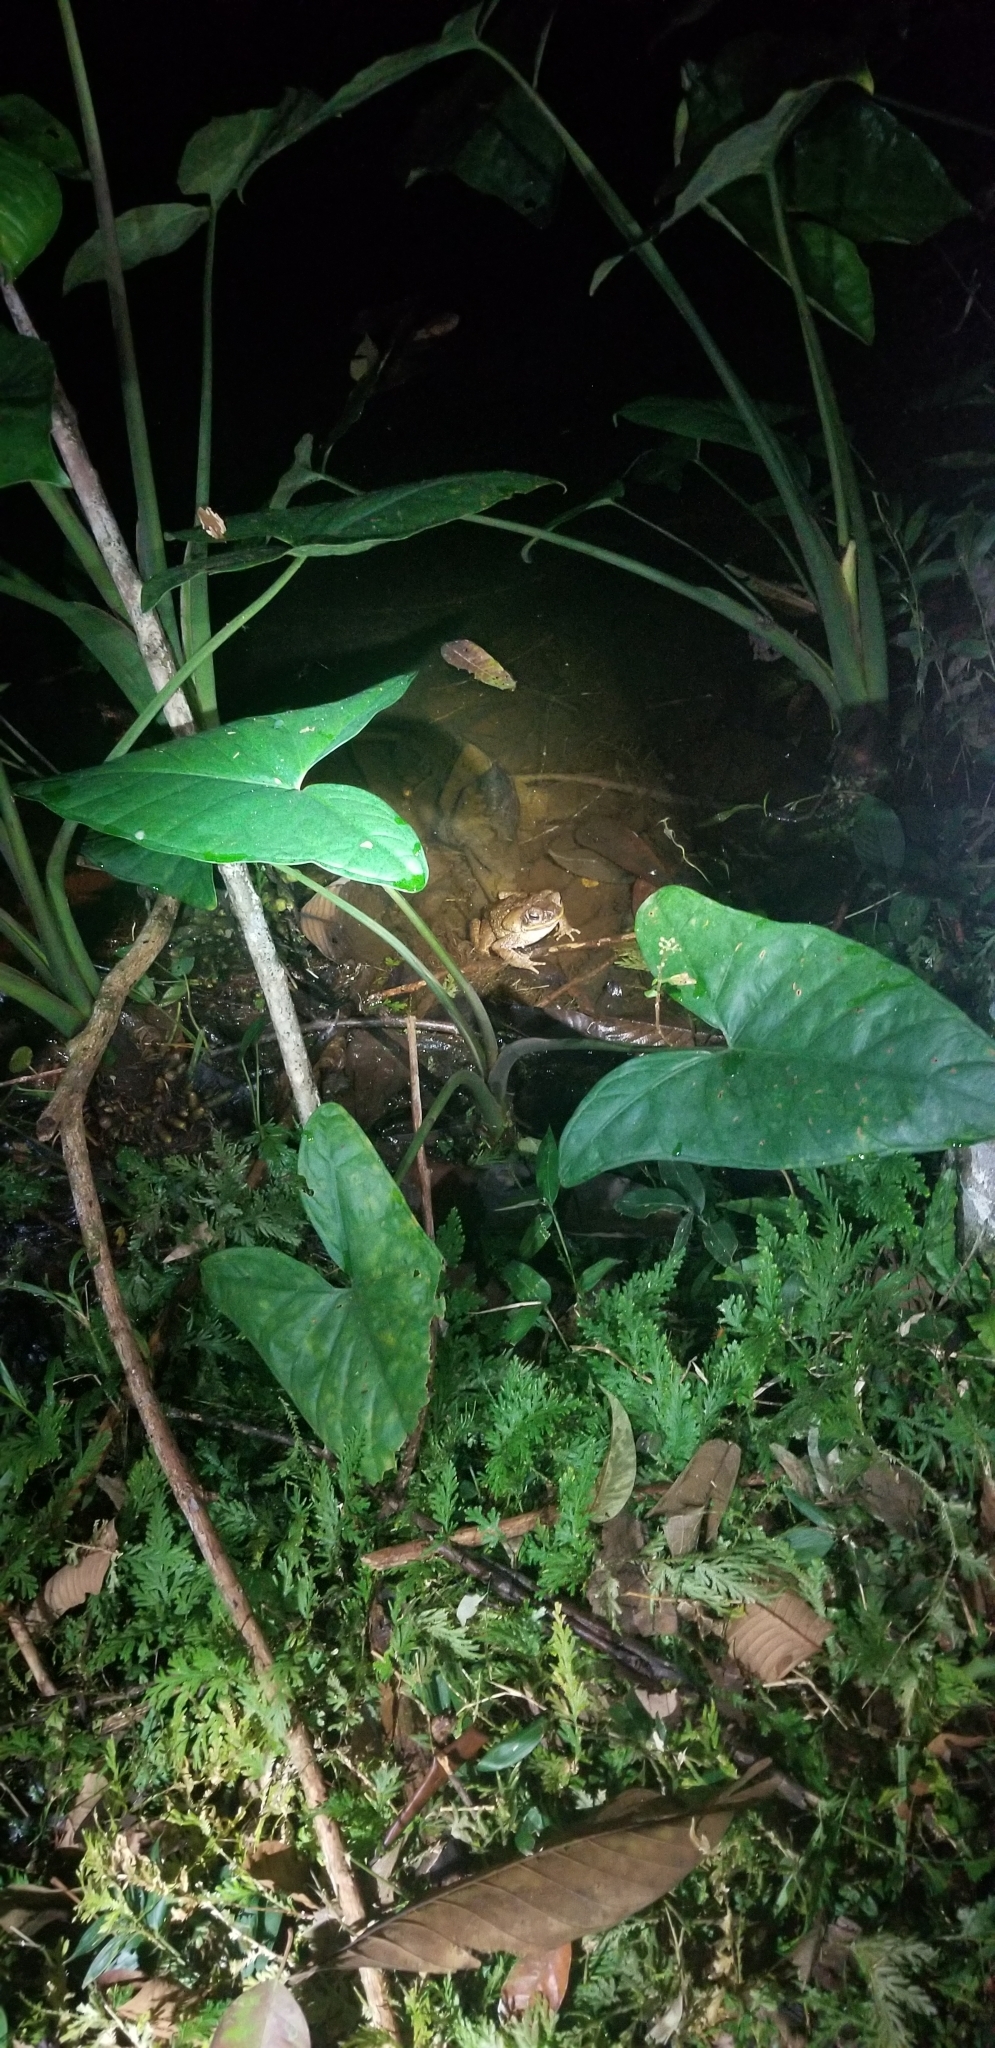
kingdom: Animalia
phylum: Chordata
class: Amphibia
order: Anura
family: Bufonidae
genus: Rhinella
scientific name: Rhinella marina
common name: Cane toad
